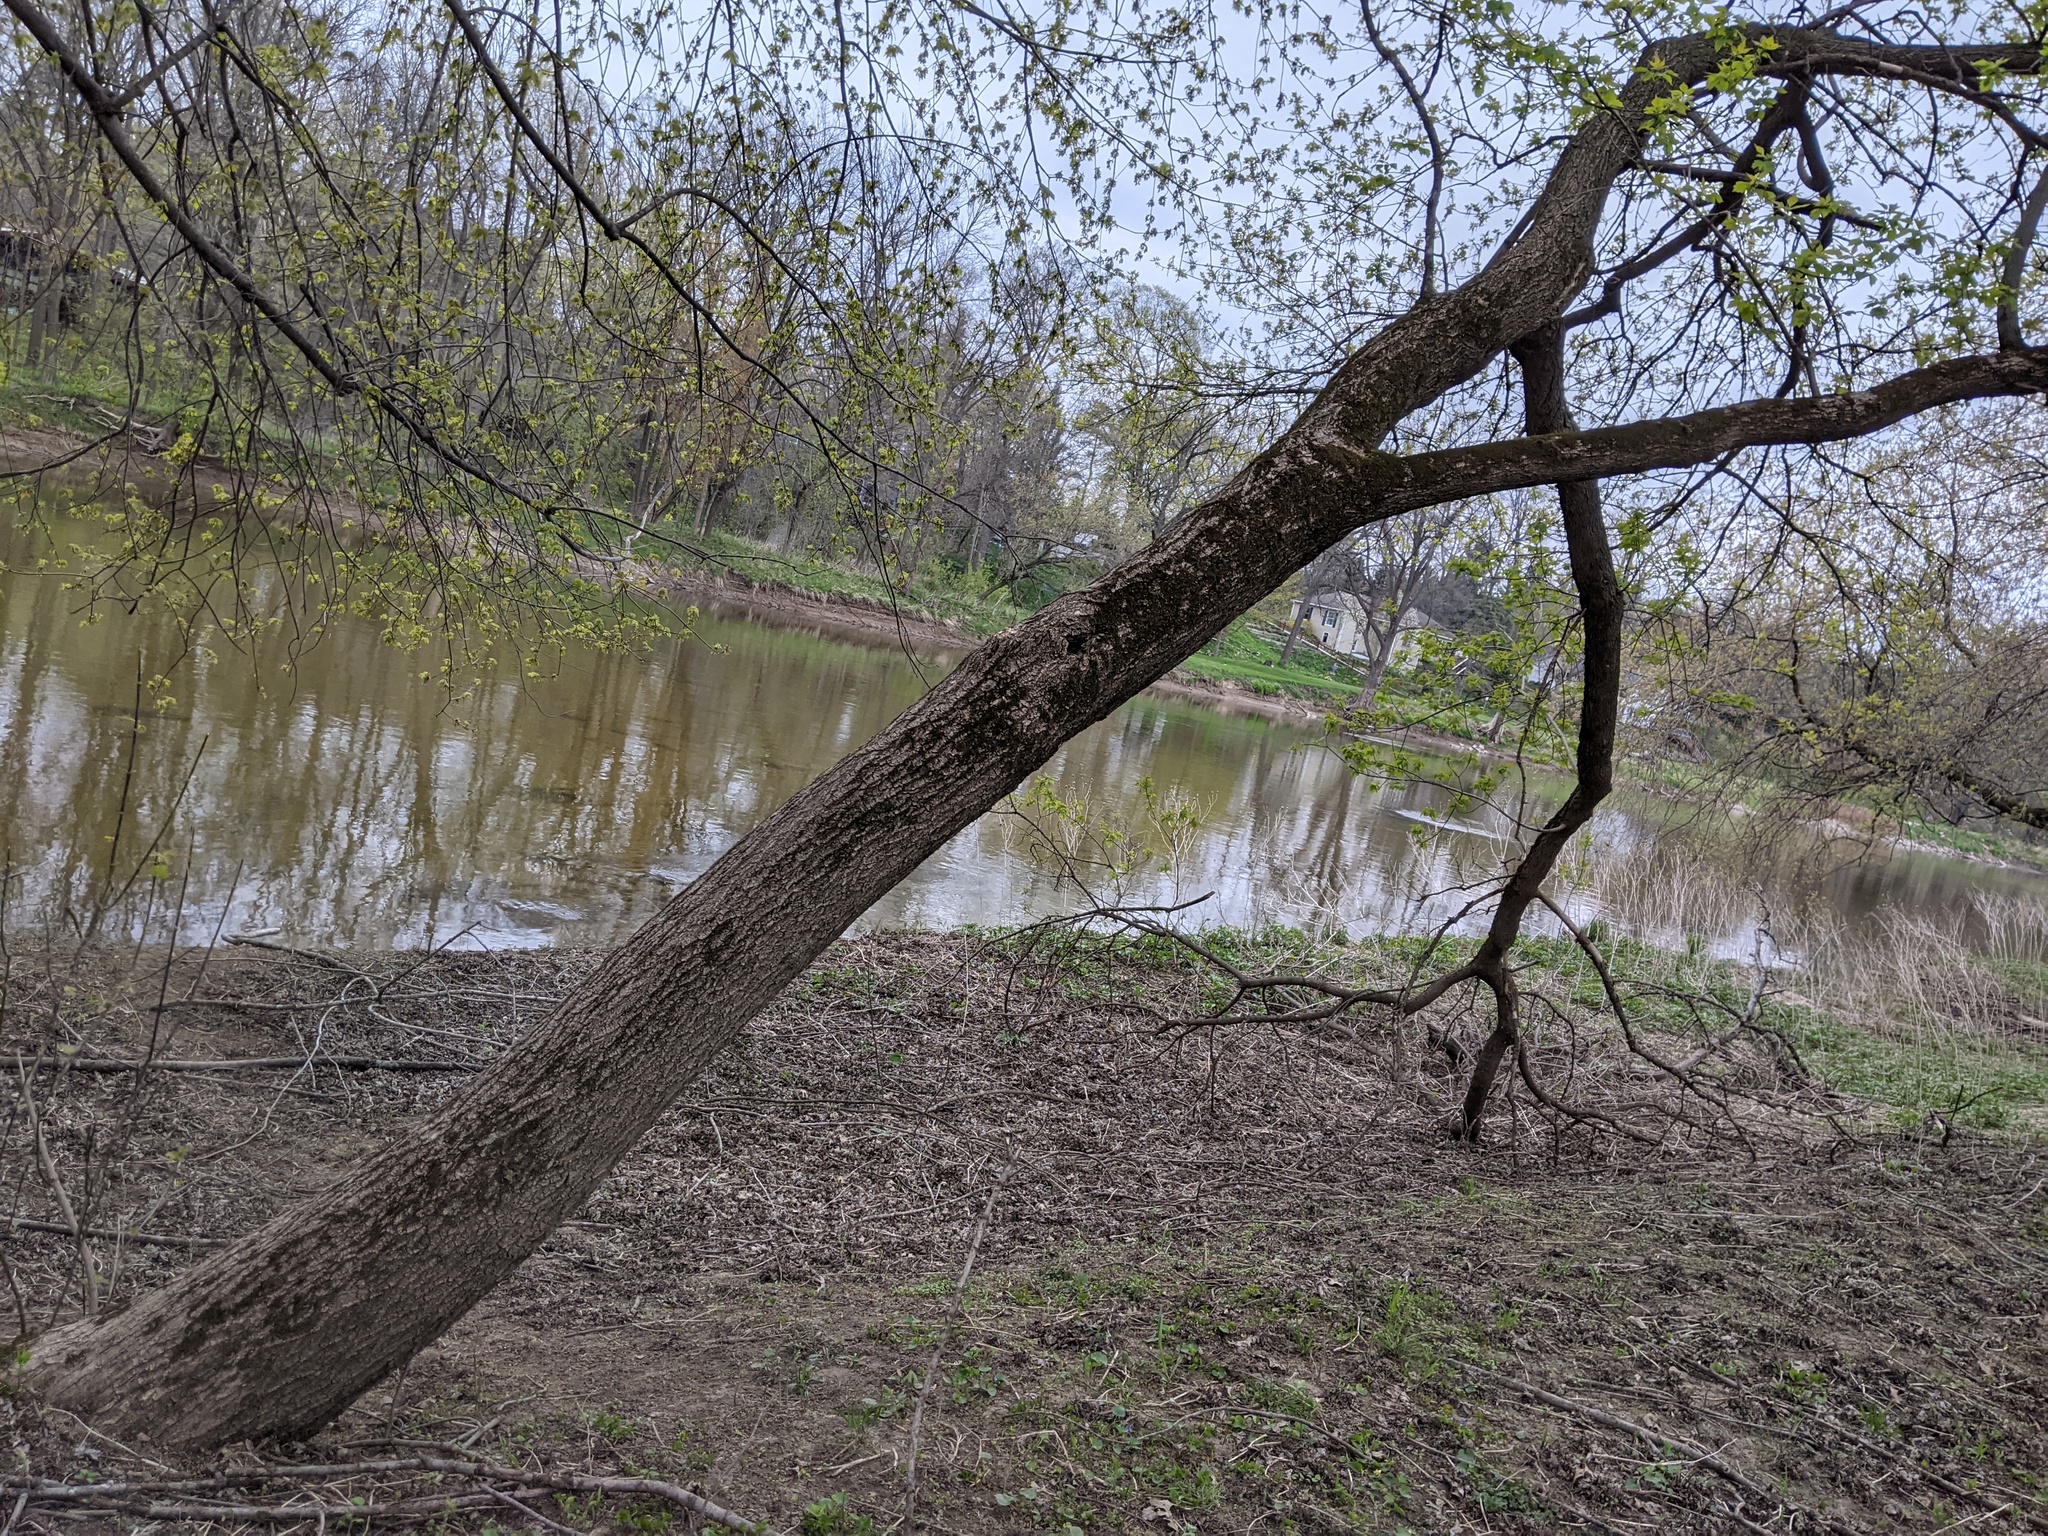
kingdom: Plantae
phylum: Tracheophyta
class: Magnoliopsida
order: Sapindales
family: Sapindaceae
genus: Acer
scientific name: Acer negundo
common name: Ashleaf maple
